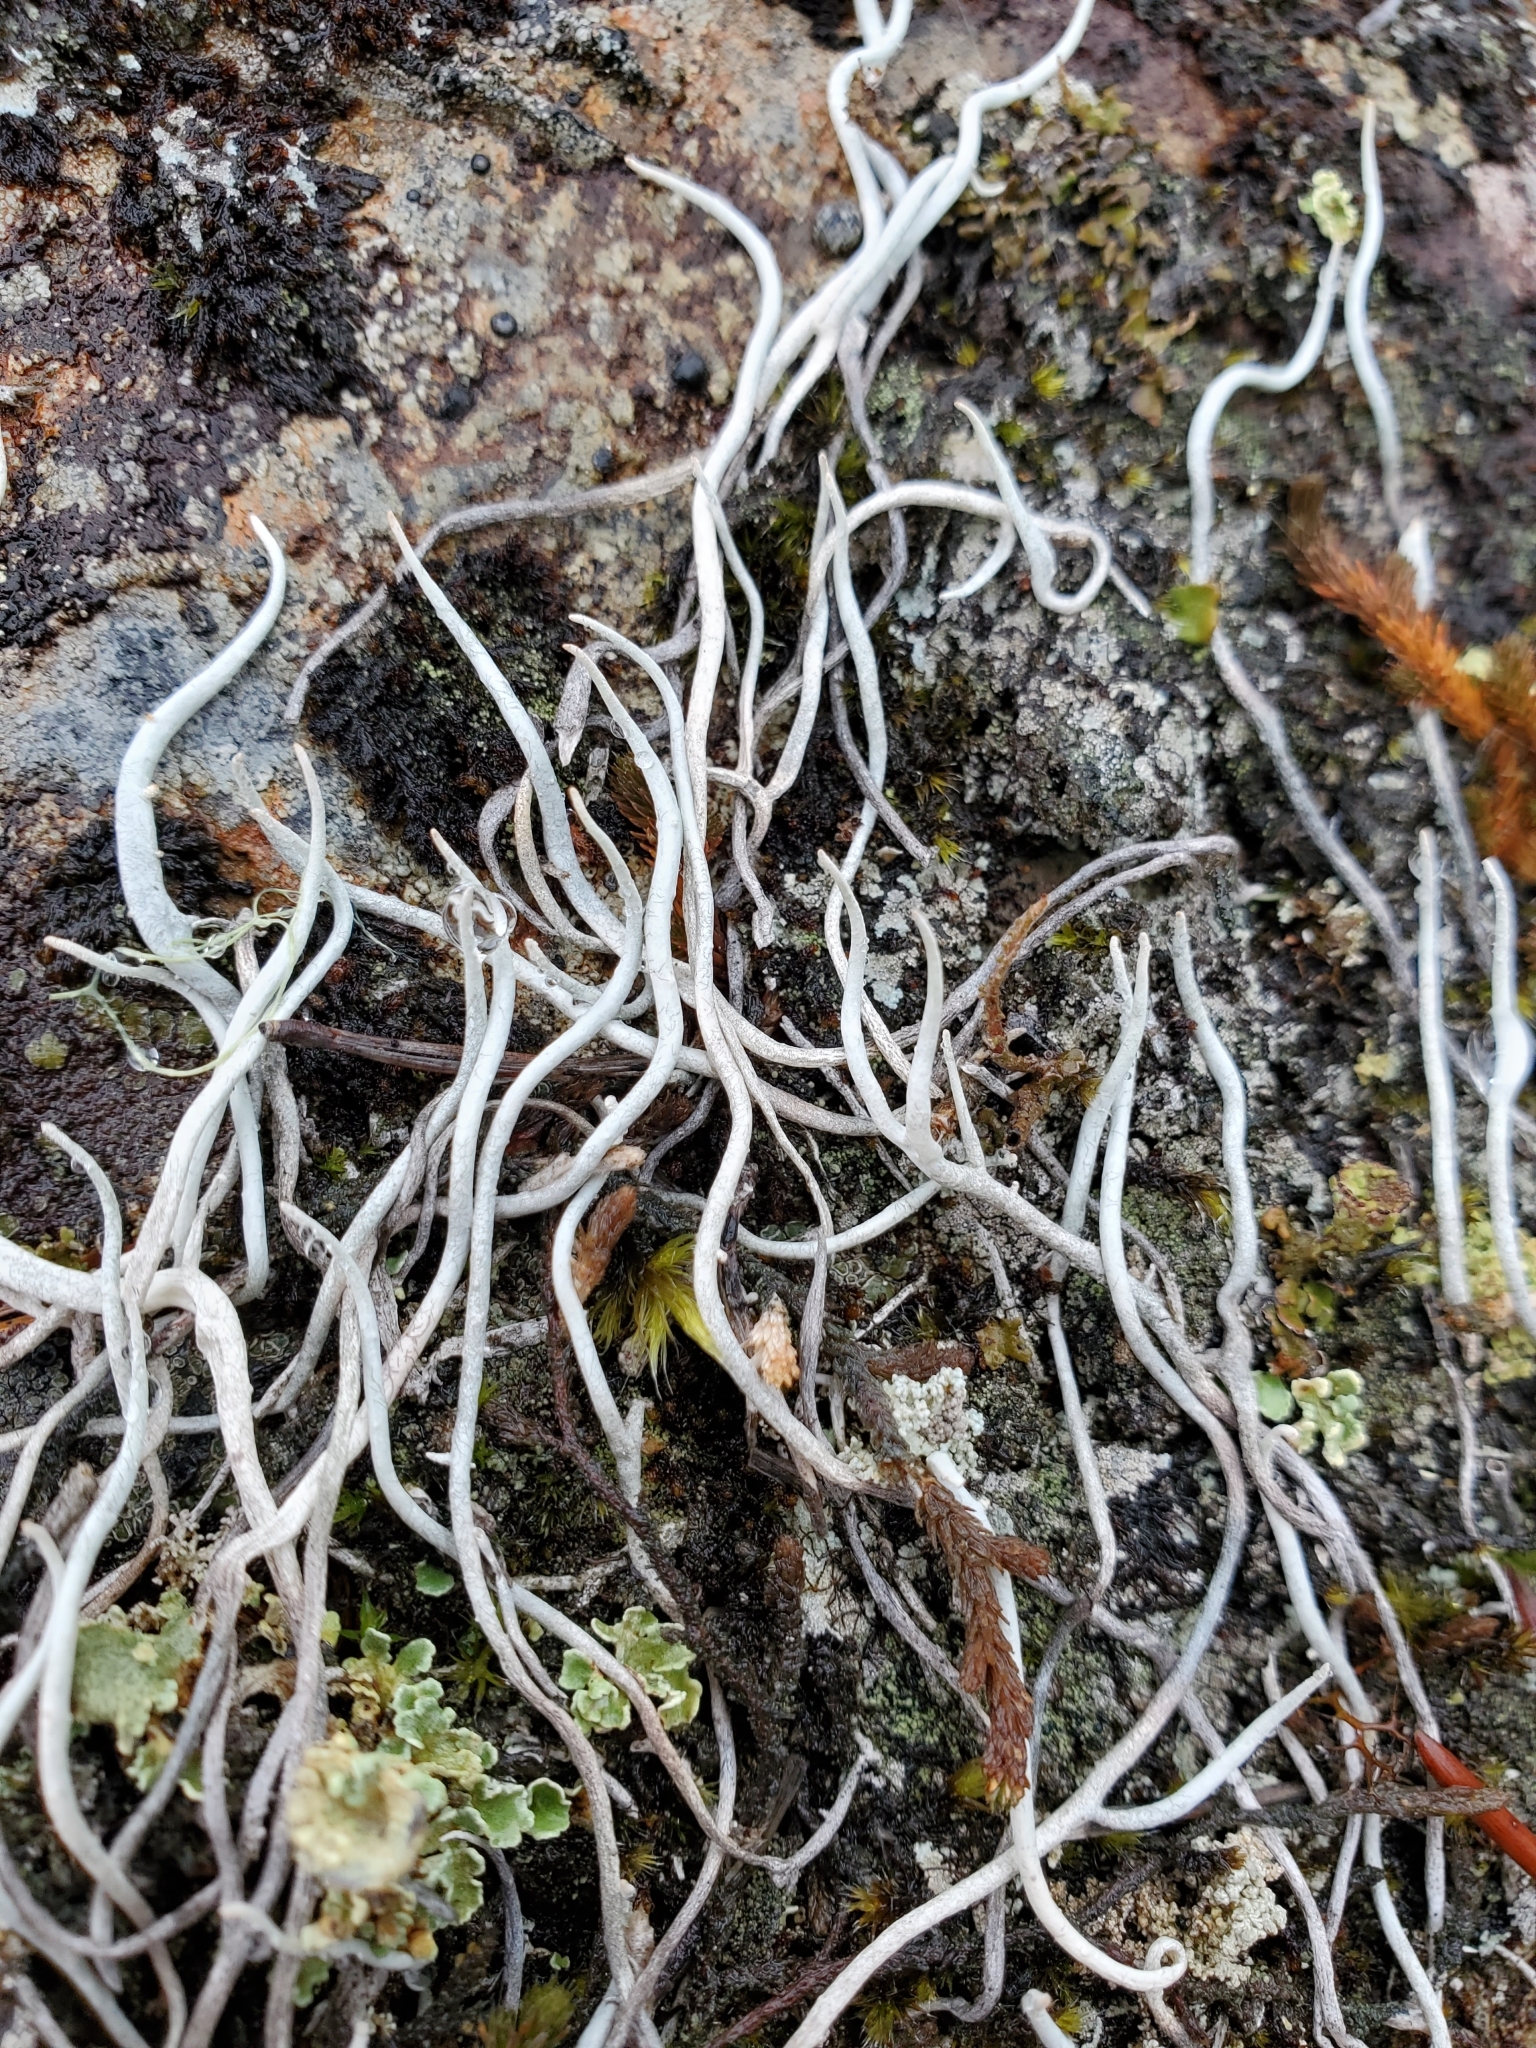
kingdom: Fungi
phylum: Ascomycota
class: Lecanoromycetes
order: Pertusariales
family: Icmadophilaceae
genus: Thamnolia
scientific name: Thamnolia vermicularis
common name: Whiteworm lichen
